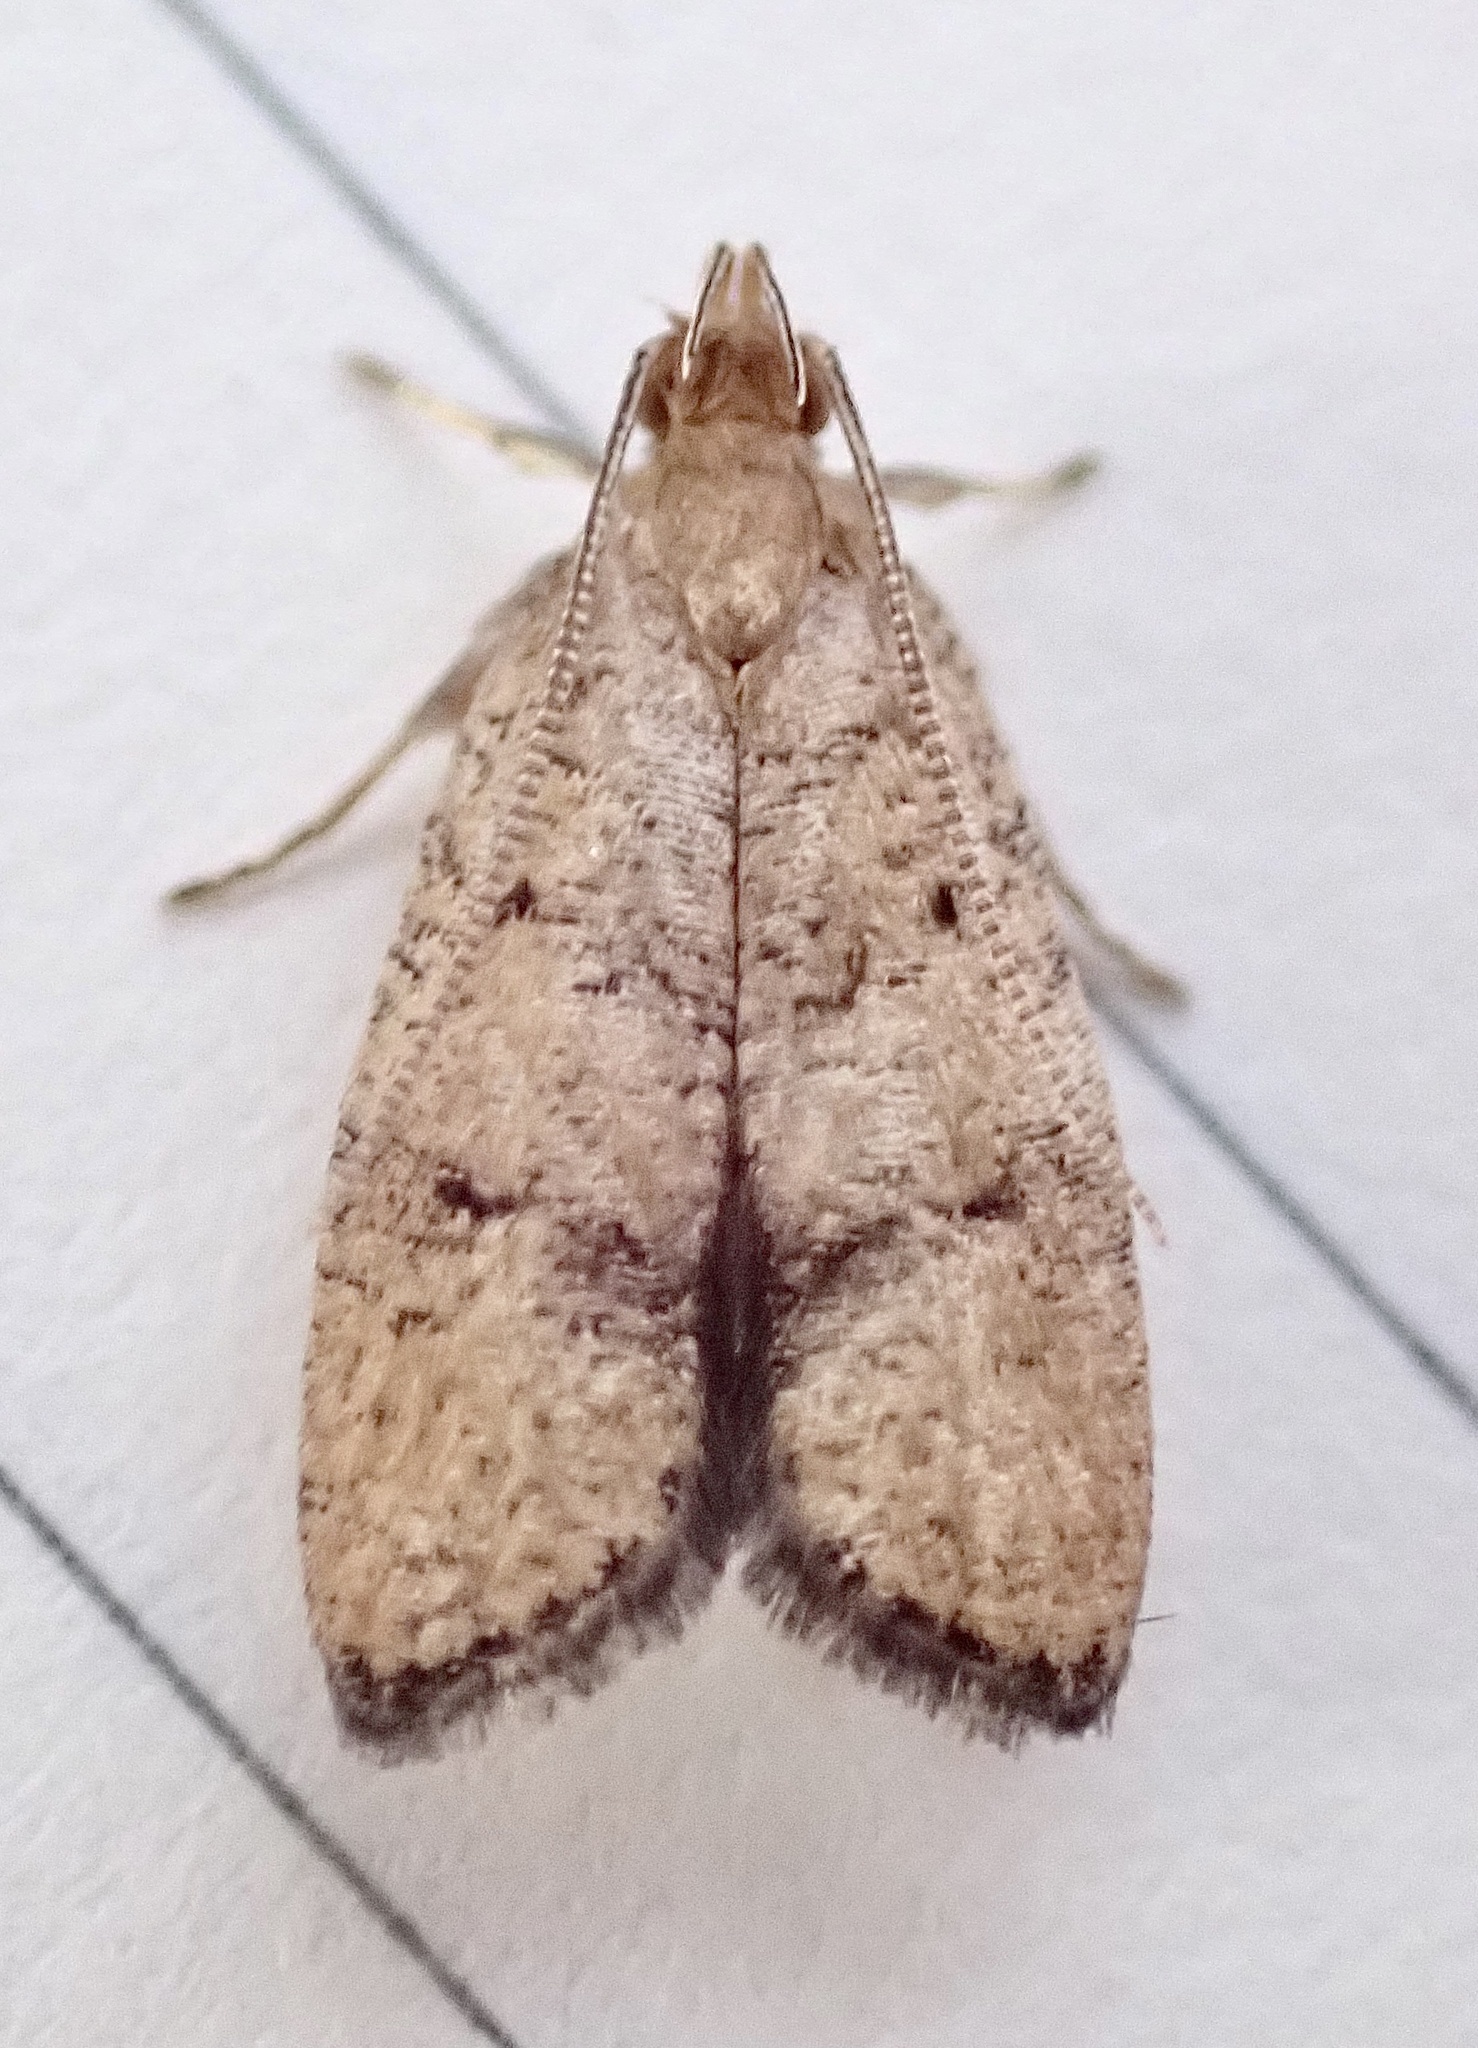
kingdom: Animalia
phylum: Arthropoda
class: Insecta
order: Lepidoptera
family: Depressariidae
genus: Psilocorsis
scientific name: Psilocorsis quercicella
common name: Oak leaftier moth
